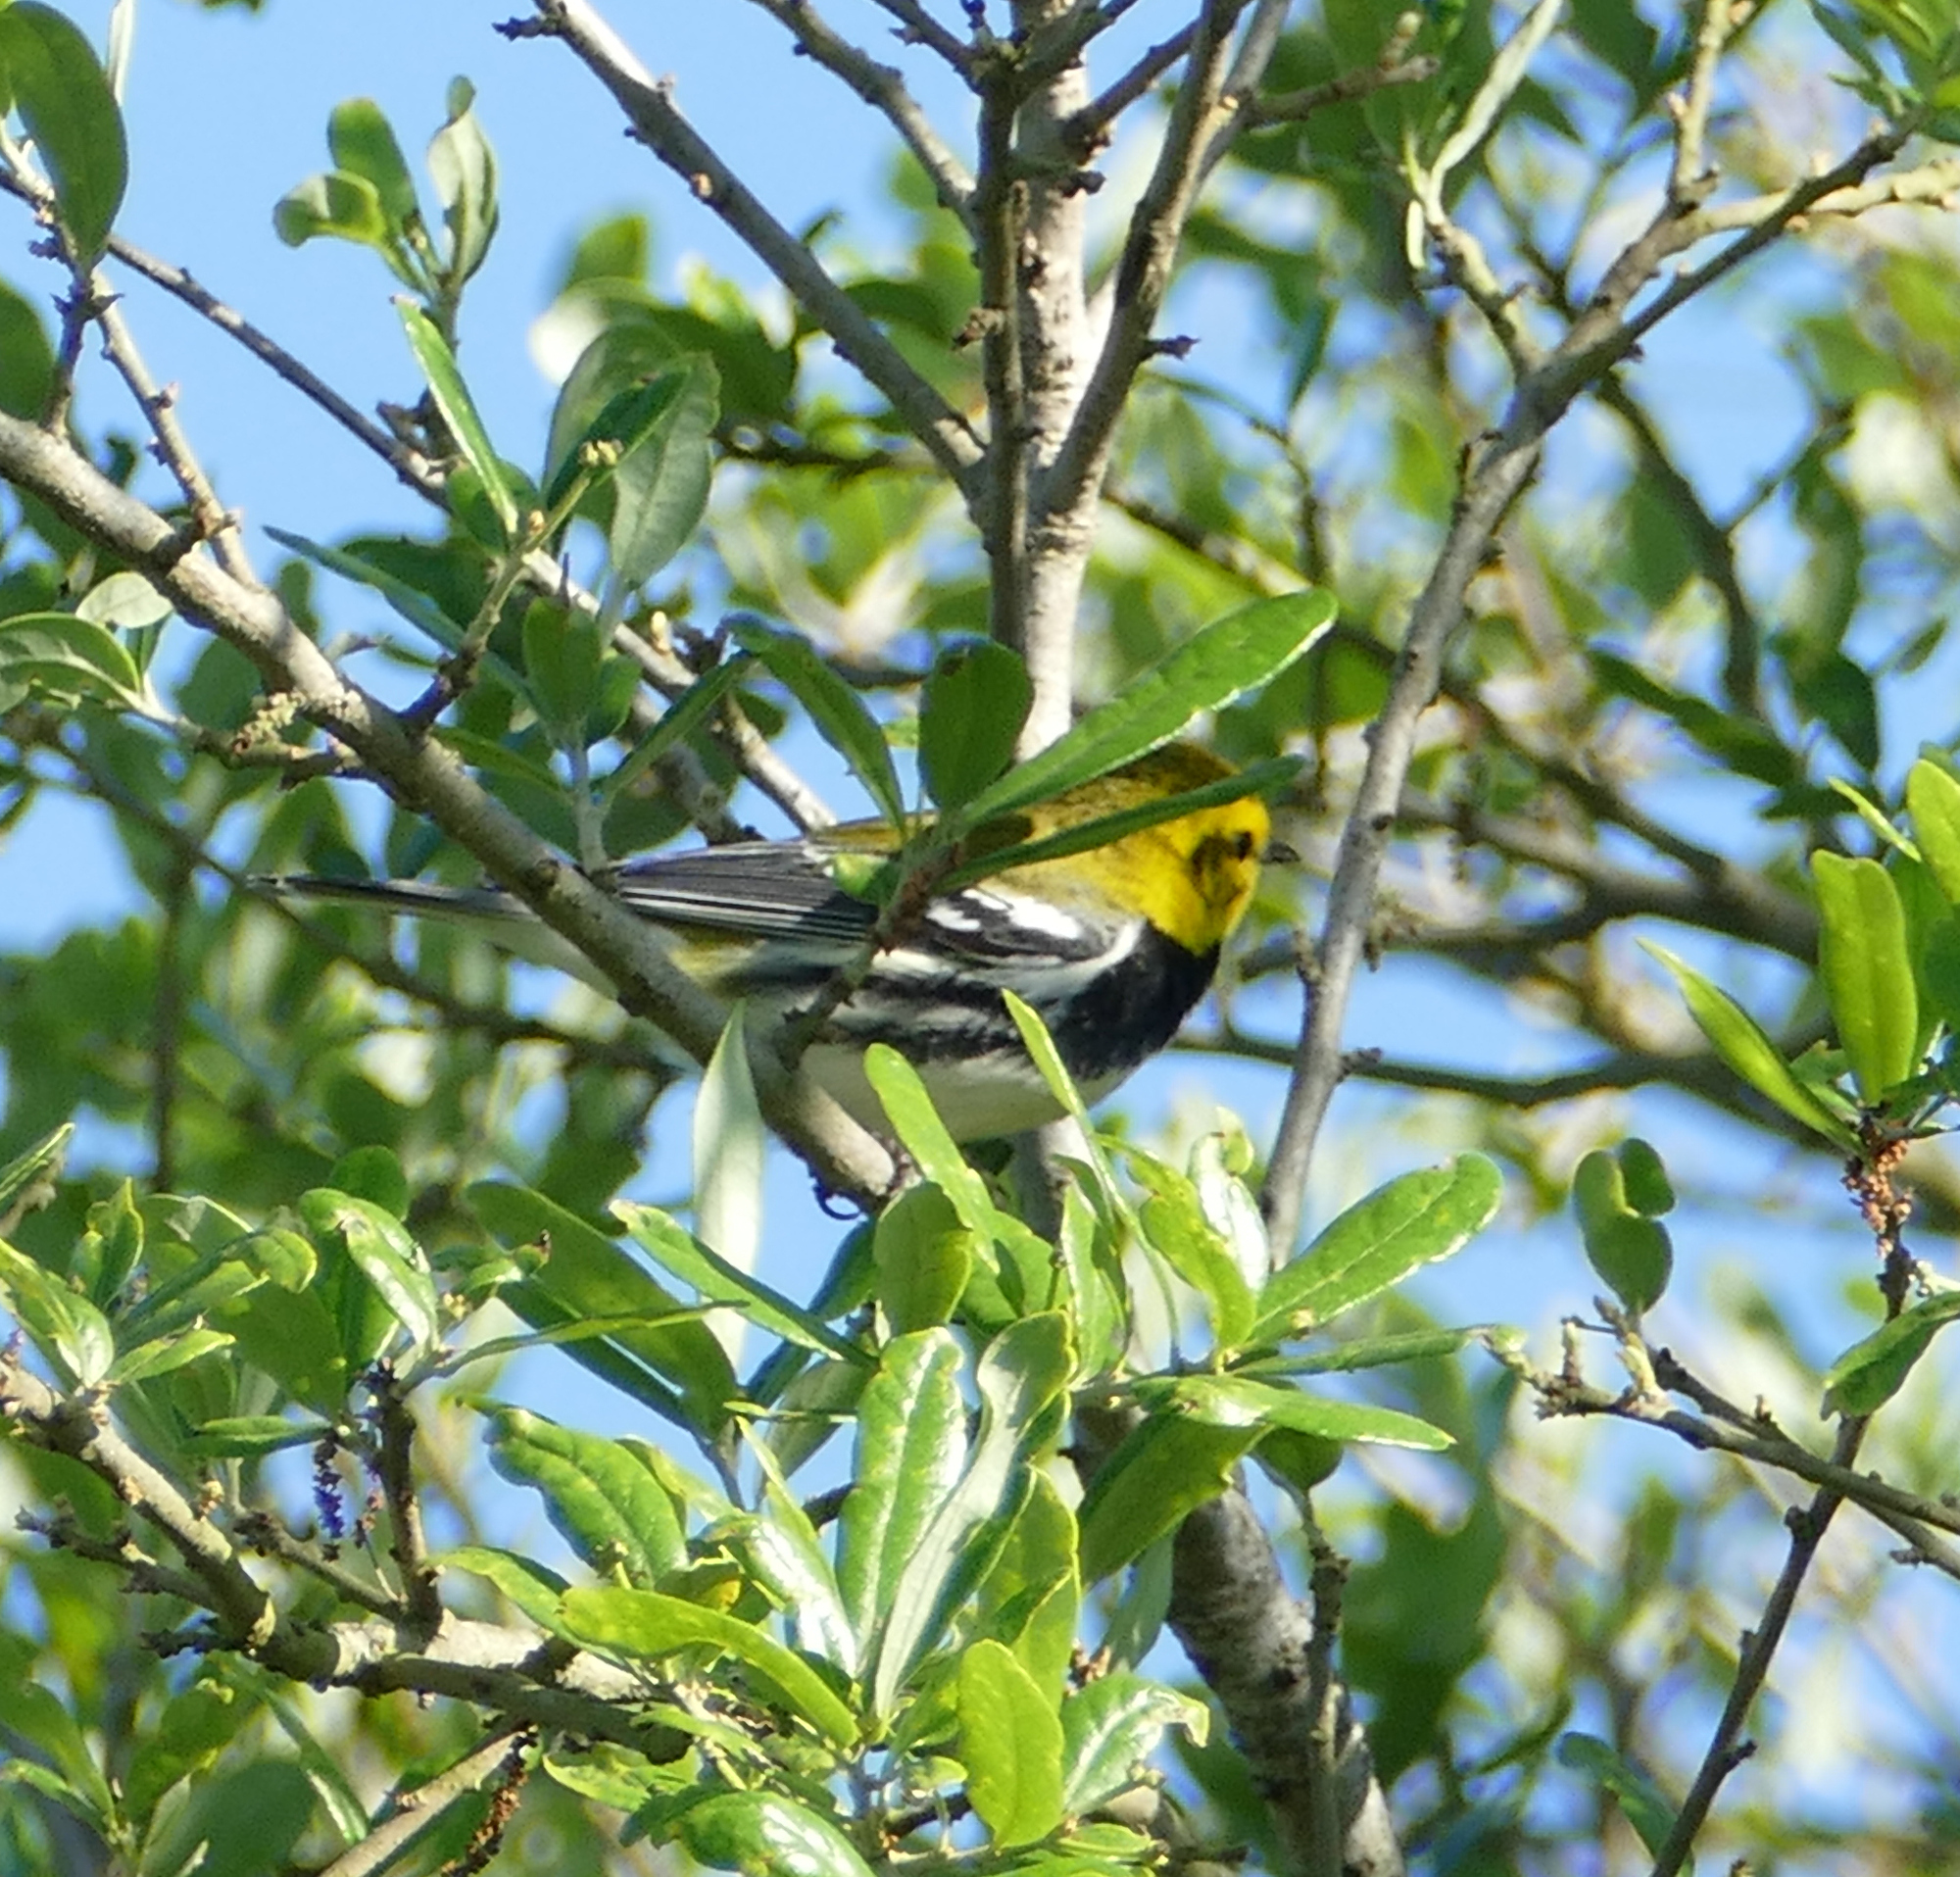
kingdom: Animalia
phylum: Chordata
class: Aves
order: Passeriformes
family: Parulidae
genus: Setophaga
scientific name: Setophaga virens
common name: Black-throated green warbler
